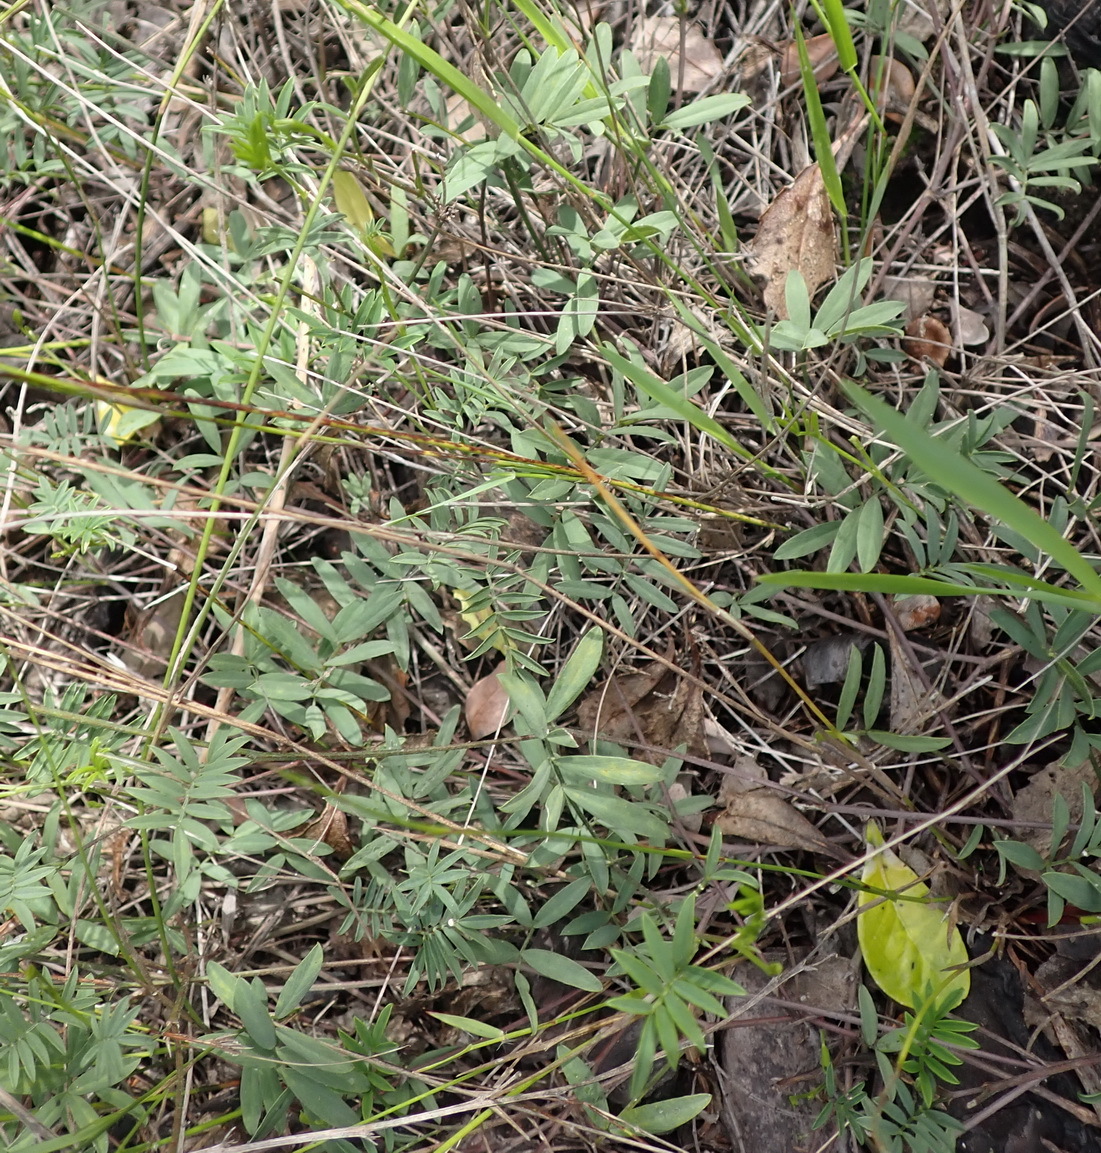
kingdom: Plantae
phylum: Tracheophyta
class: Magnoliopsida
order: Fabales
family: Fabaceae
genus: Tephrosia
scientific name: Tephrosia capensis
